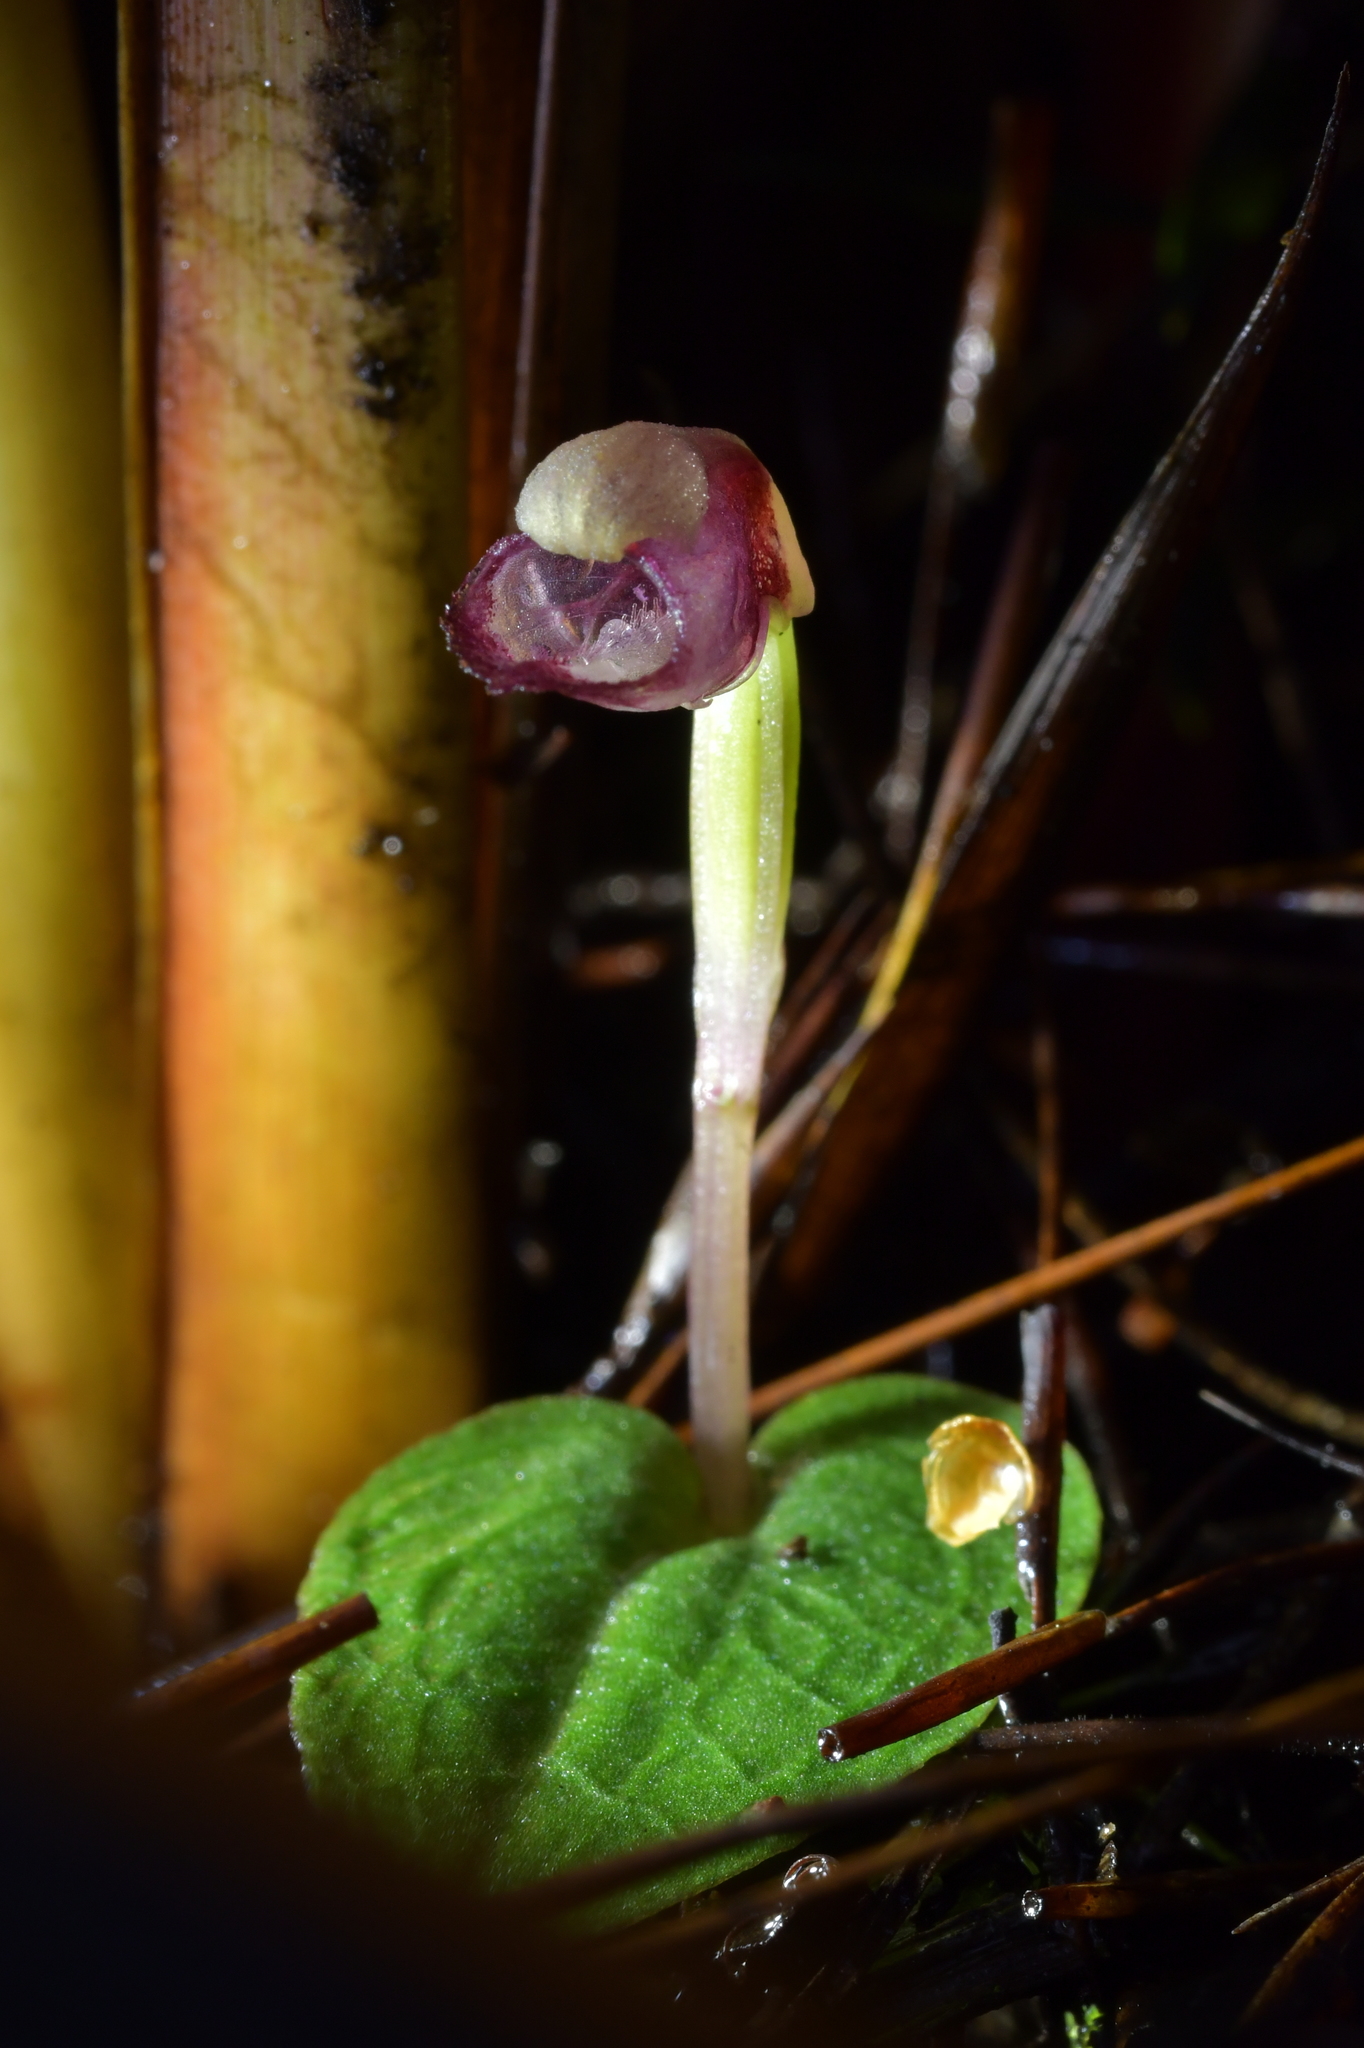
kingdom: Plantae
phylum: Tracheophyta
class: Liliopsida
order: Asparagales
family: Orchidaceae
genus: Corybas
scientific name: Corybas rotundifolius
